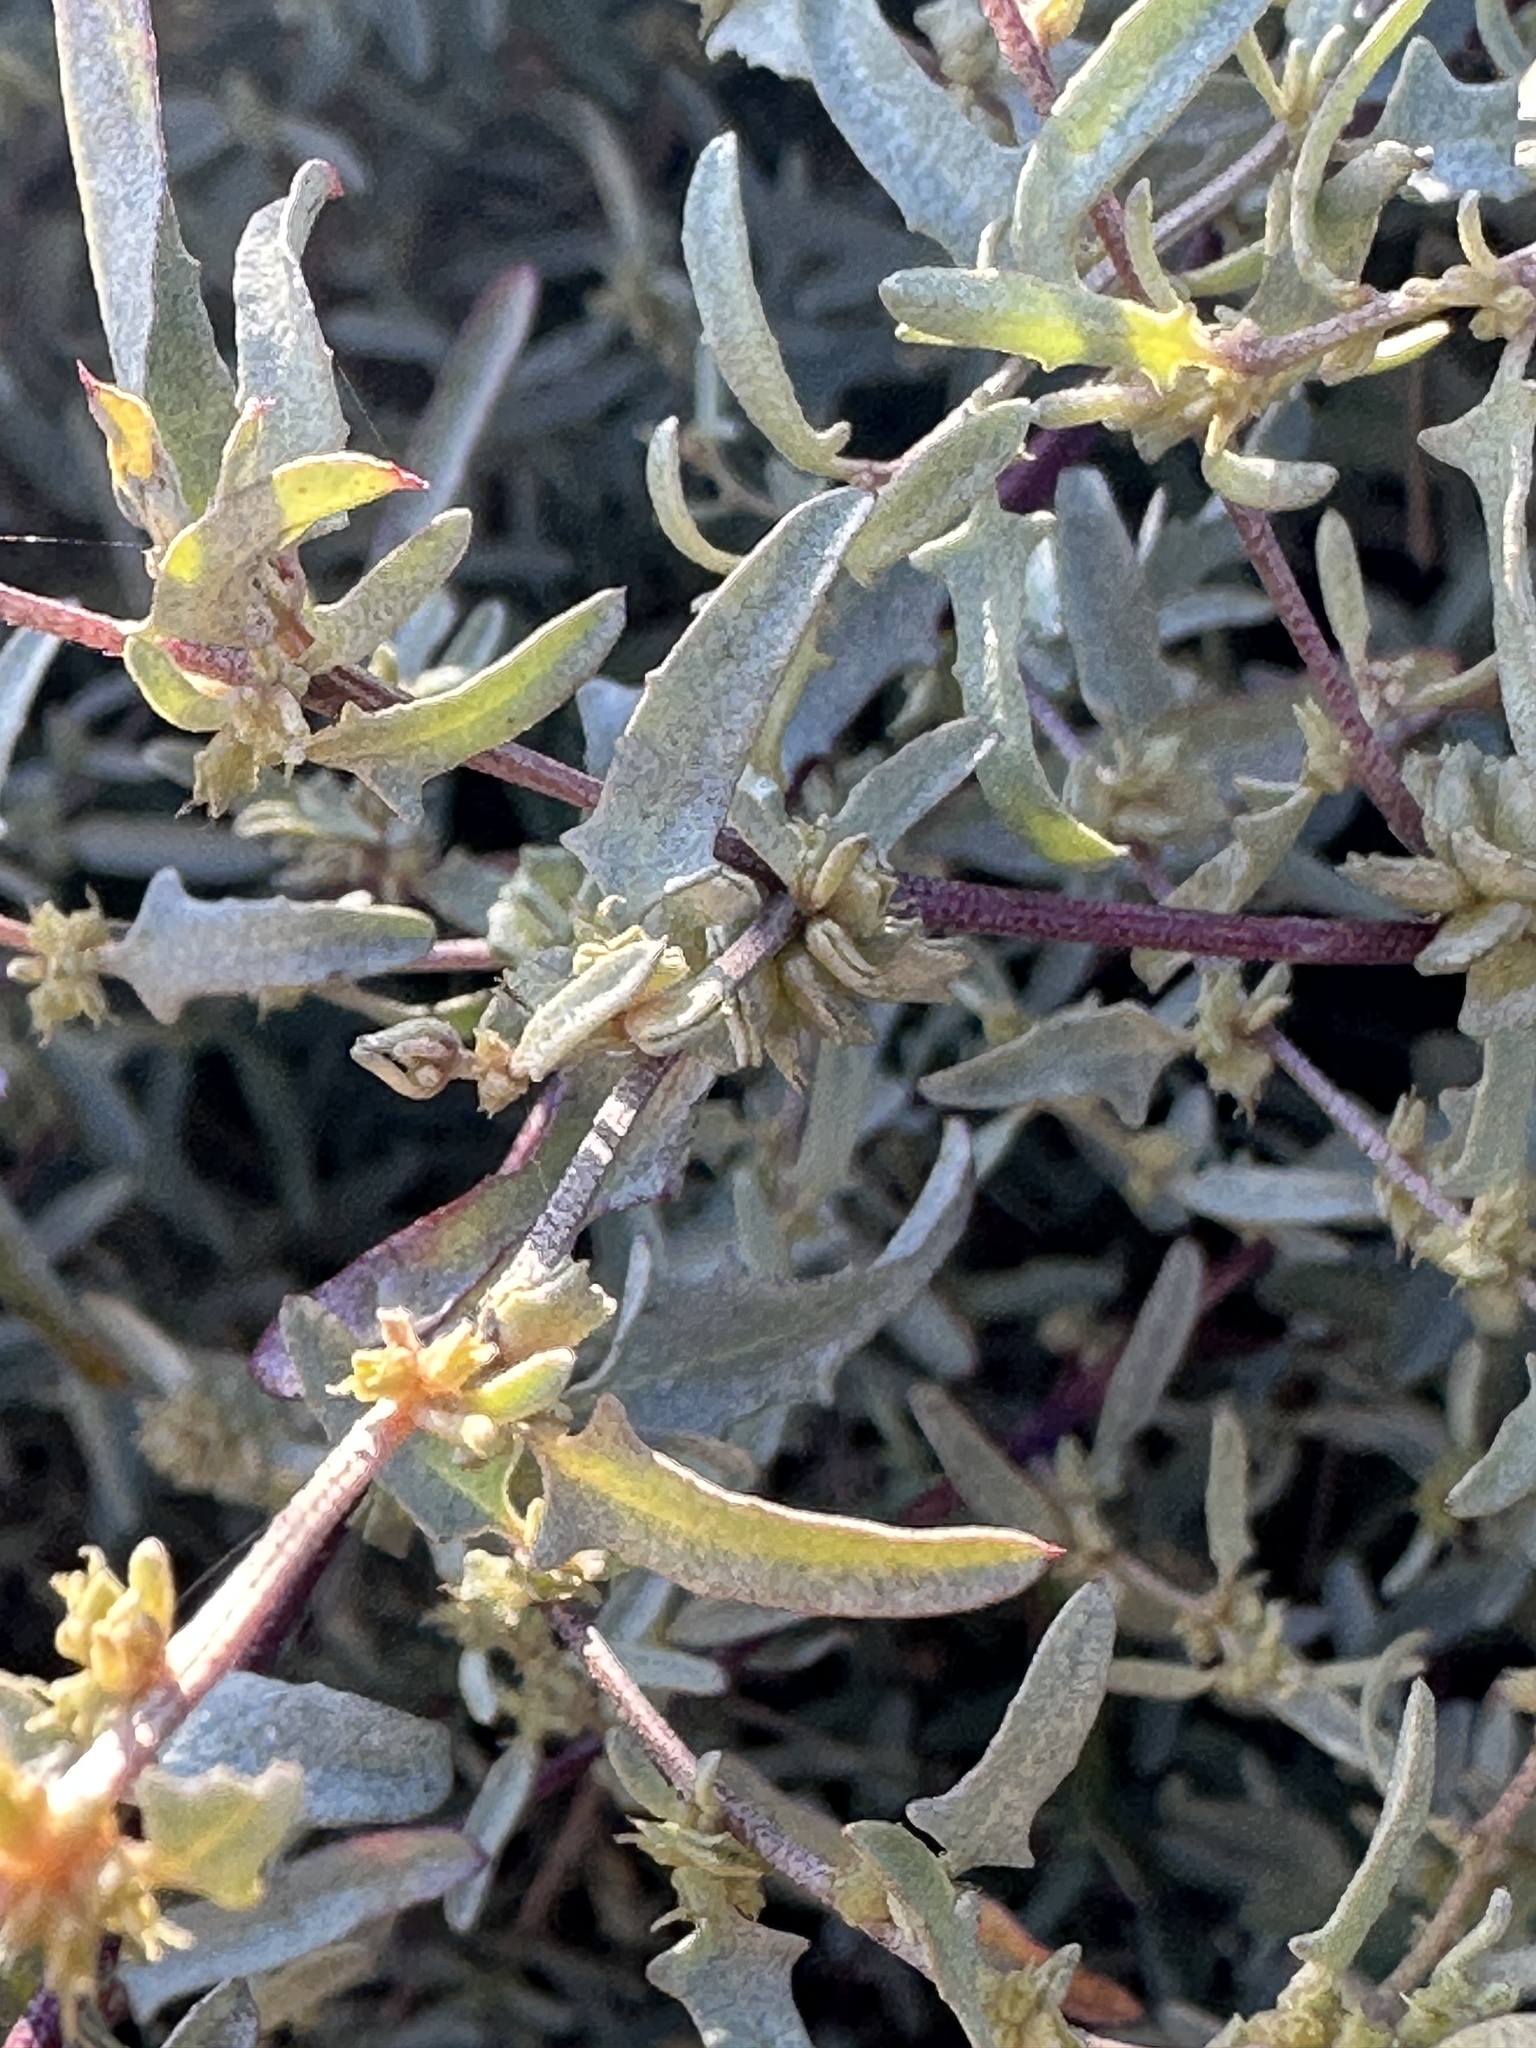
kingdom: Plantae
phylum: Tracheophyta
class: Magnoliopsida
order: Caryophyllales
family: Amaranthaceae
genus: Atriplex
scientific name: Atriplex amnicola
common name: Swamp saltbush
